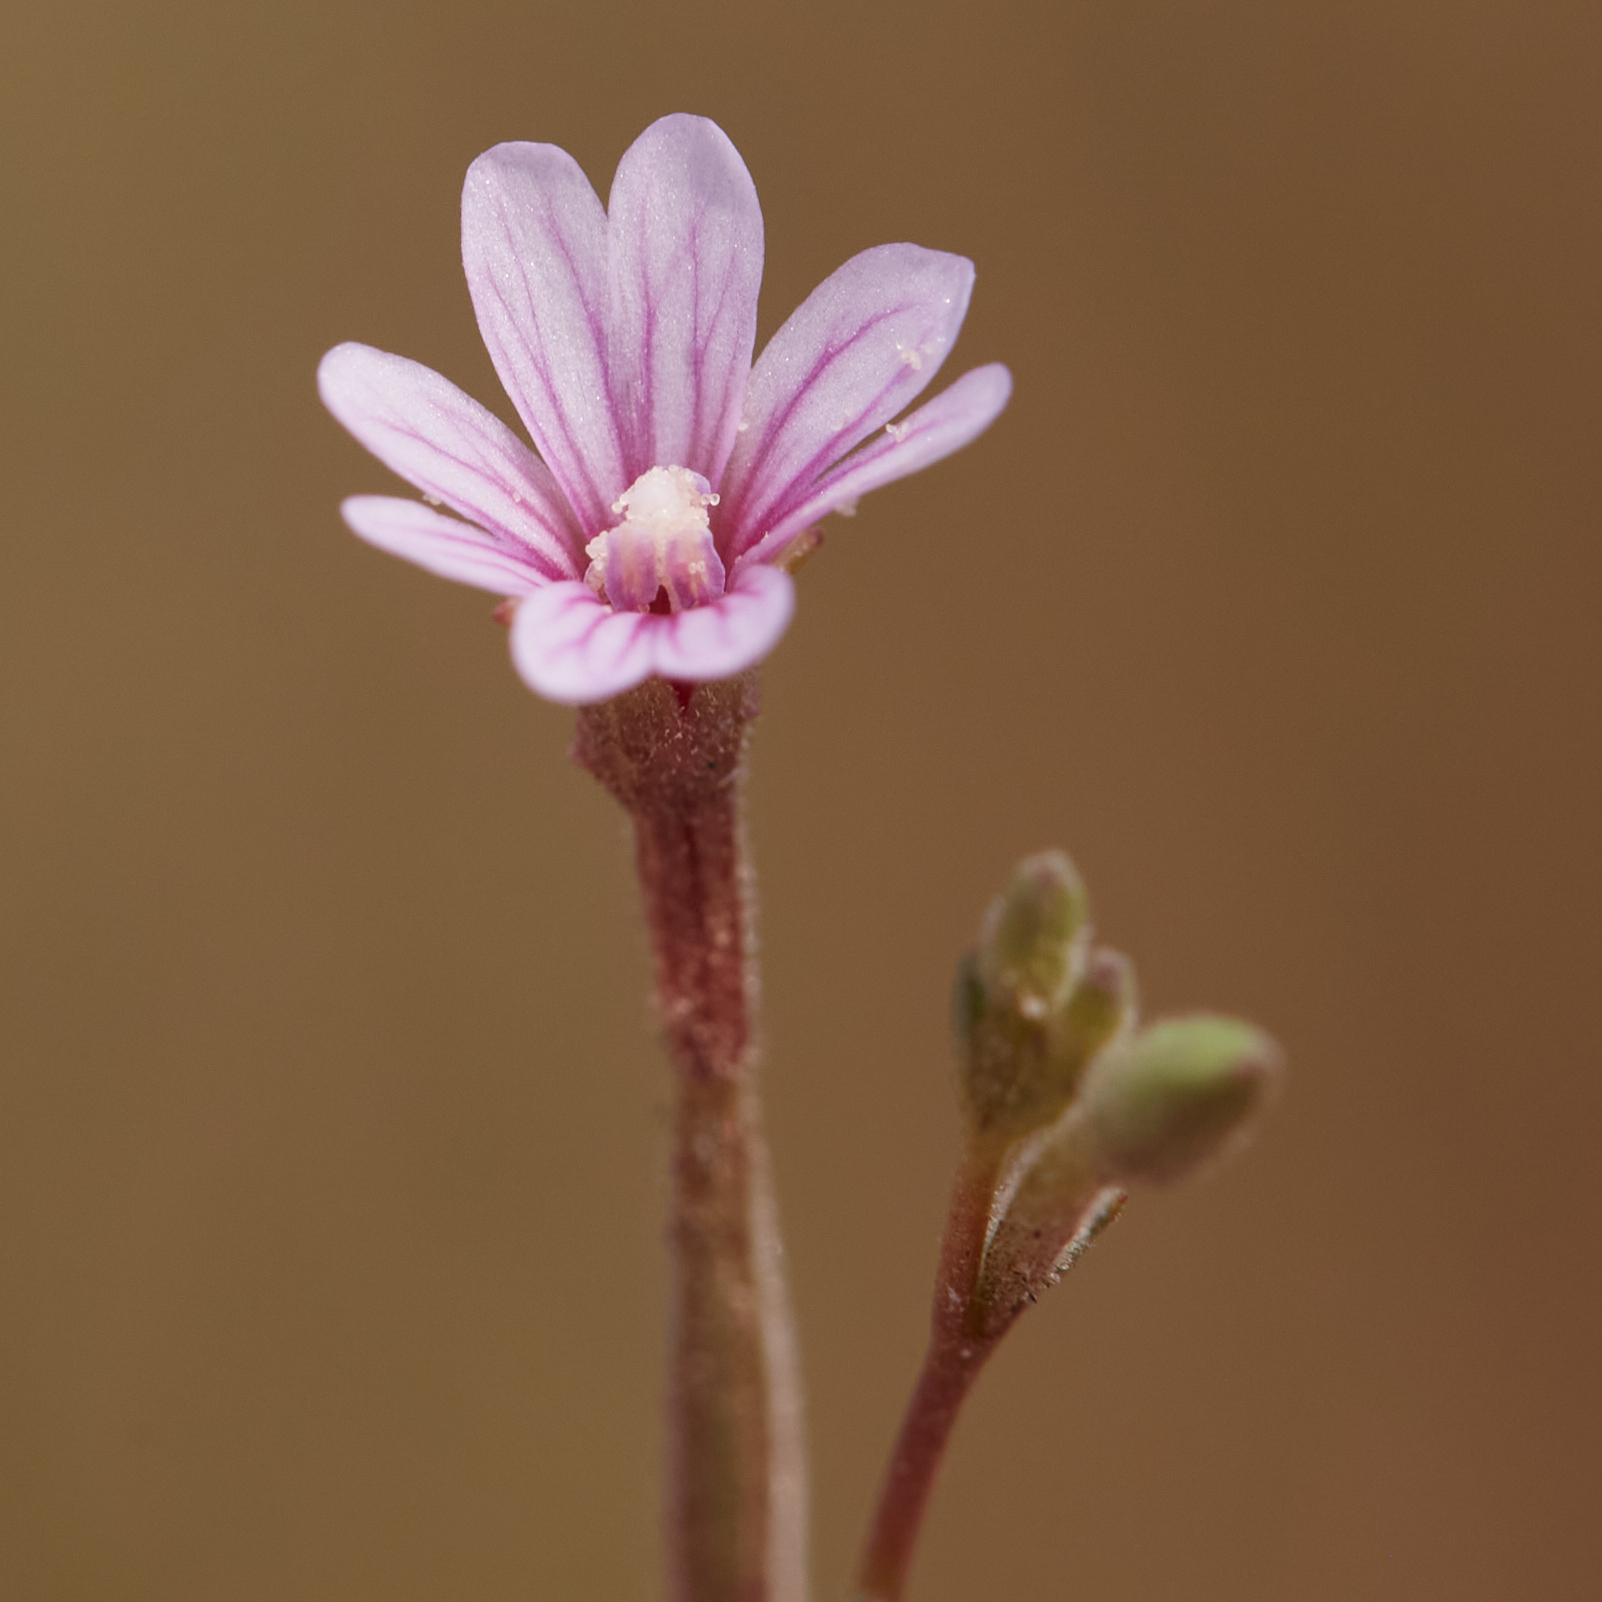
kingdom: Plantae
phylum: Tracheophyta
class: Magnoliopsida
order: Myrtales
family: Onagraceae
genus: Epilobium
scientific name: Epilobium brachycarpum
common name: Annual willowherb
